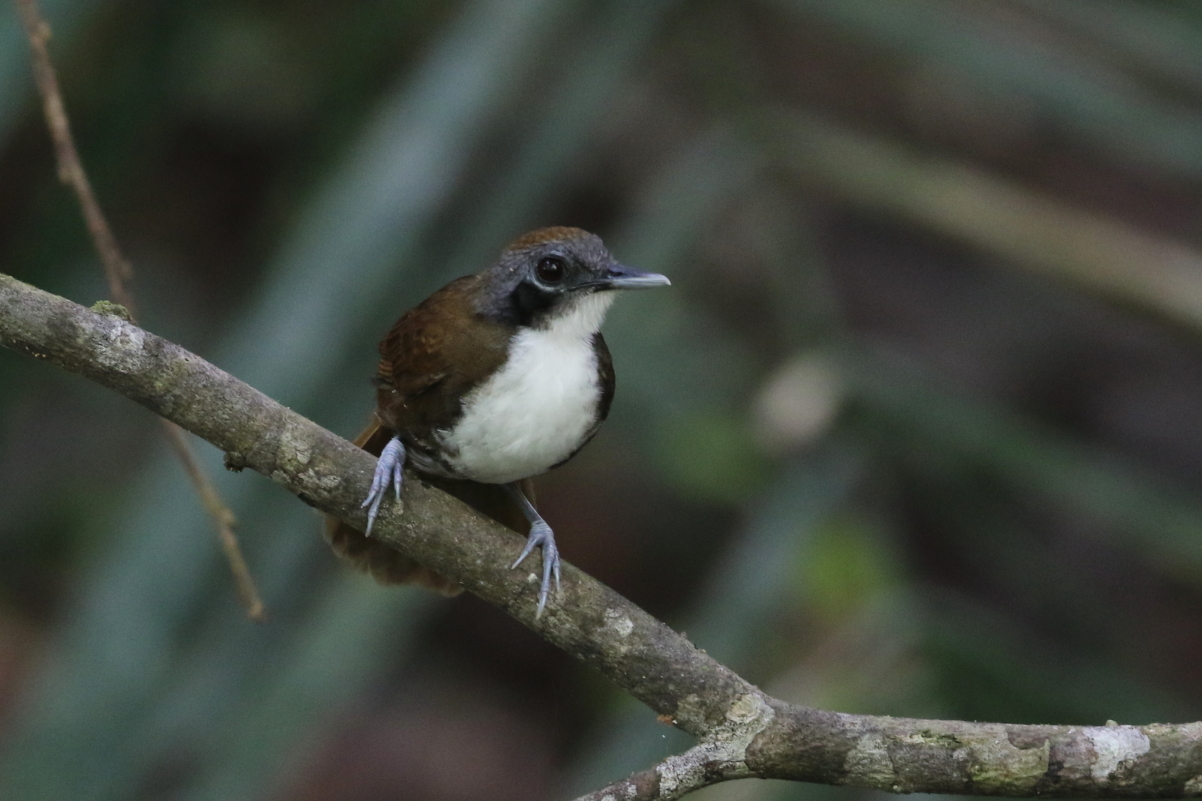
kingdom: Animalia
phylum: Chordata
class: Aves
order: Passeriformes
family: Thamnophilidae
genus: Gymnopithys
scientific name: Gymnopithys leucaspis
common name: White-cheeked antbird
